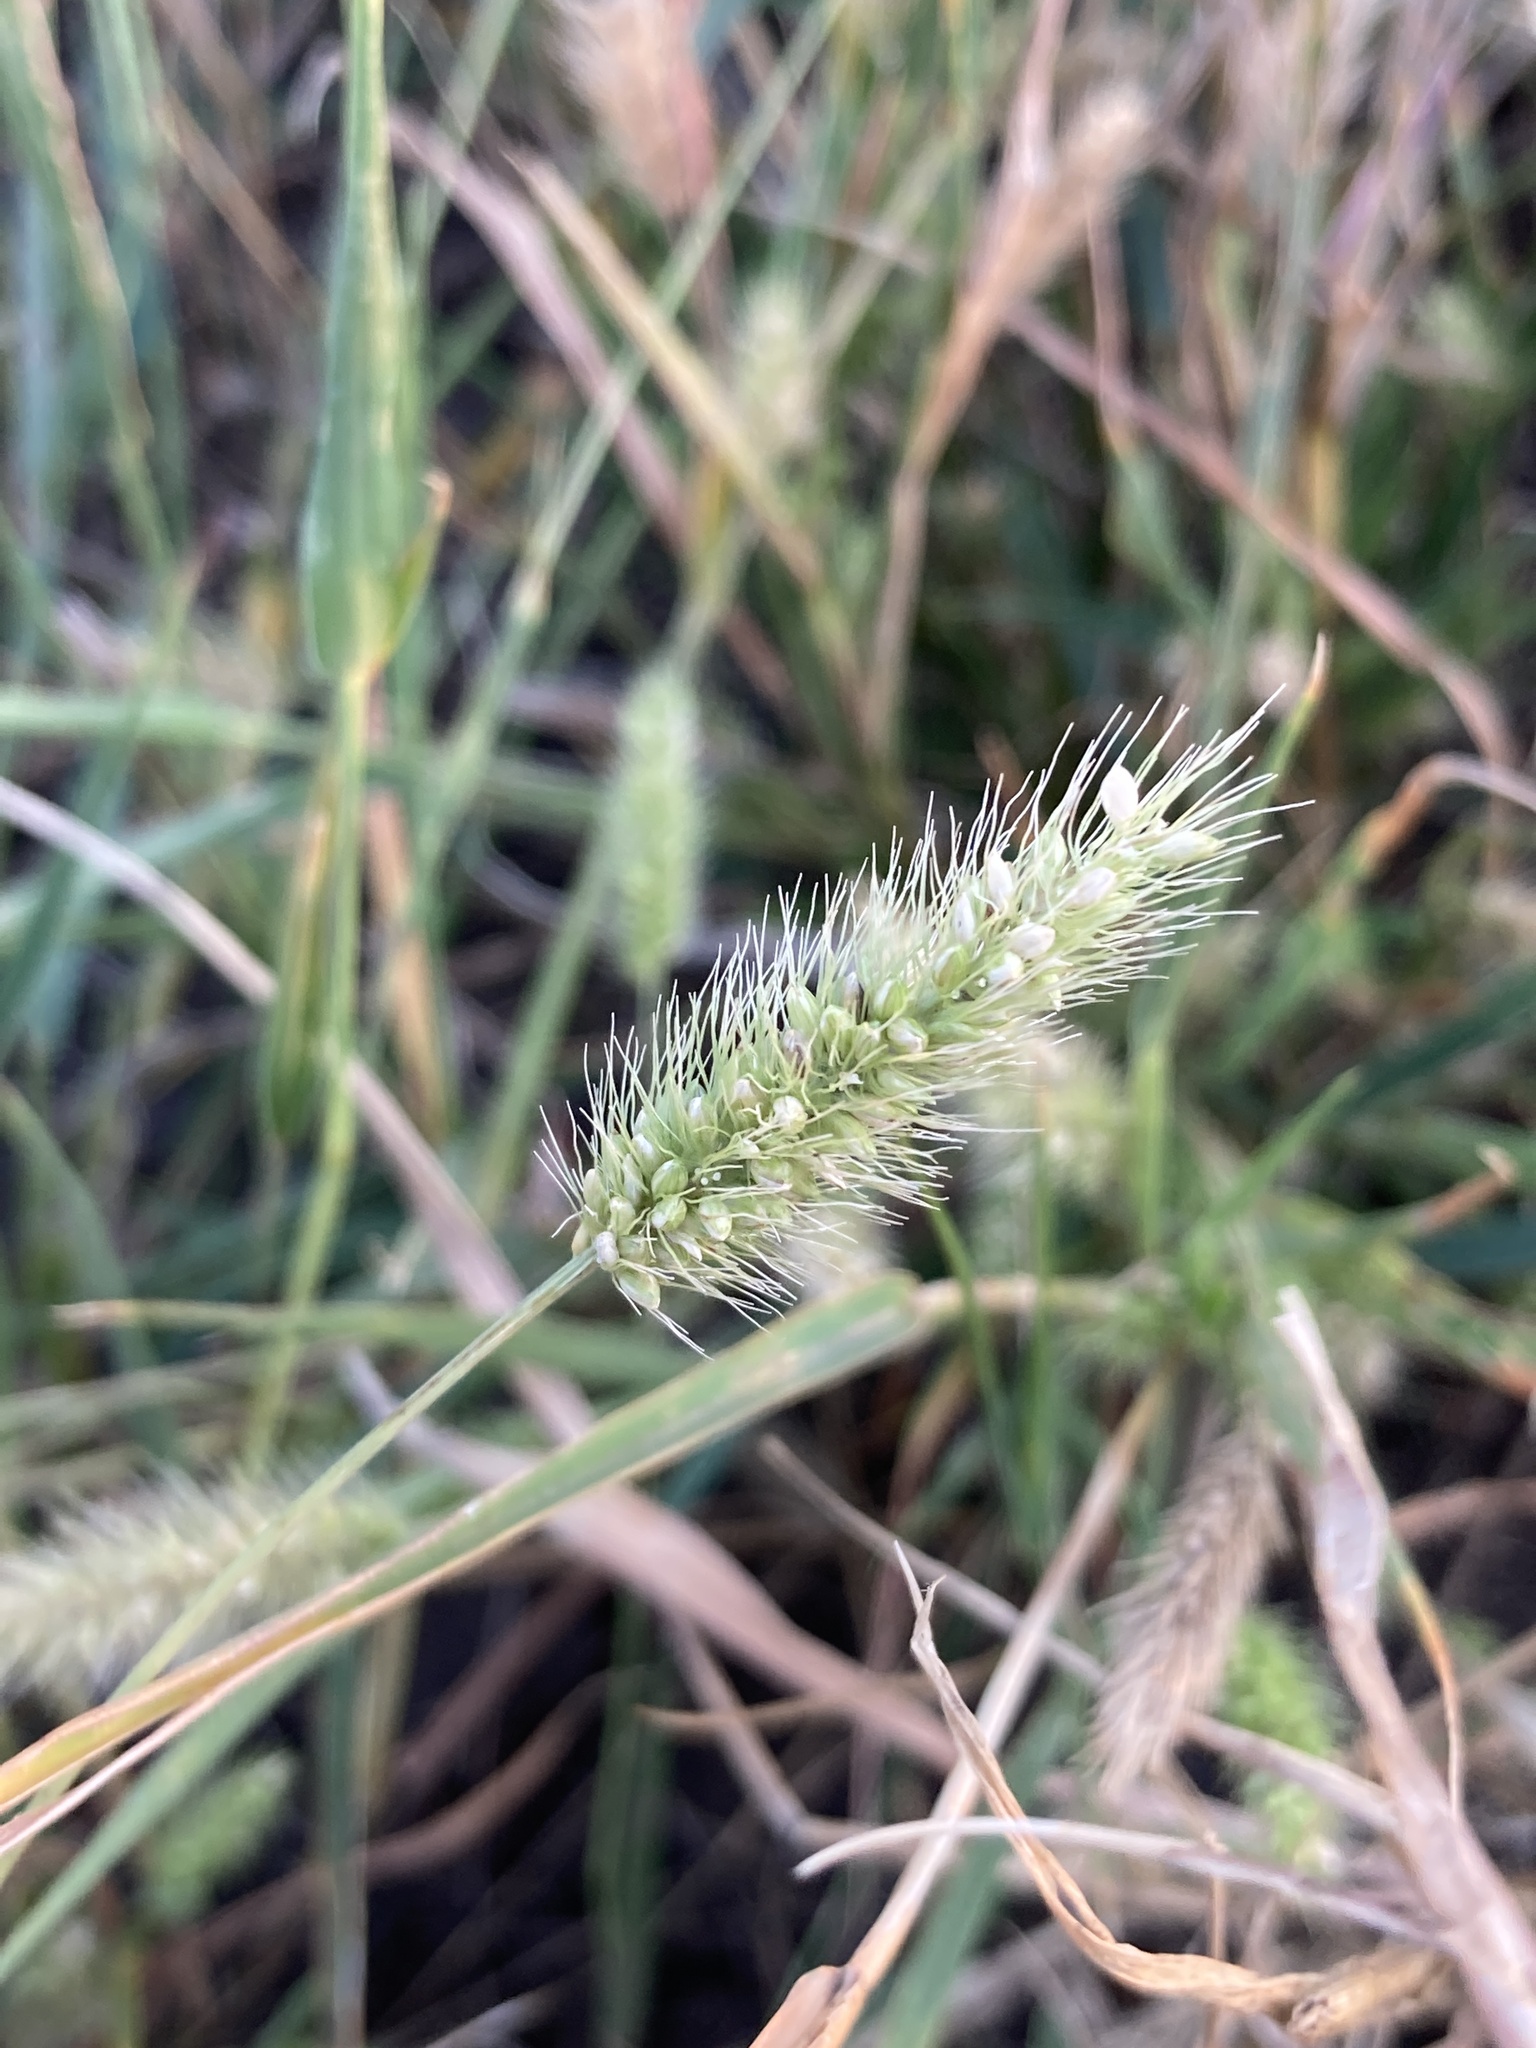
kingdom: Plantae
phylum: Tracheophyta
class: Liliopsida
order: Poales
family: Poaceae
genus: Setaria
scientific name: Setaria viridis
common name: Green bristlegrass
